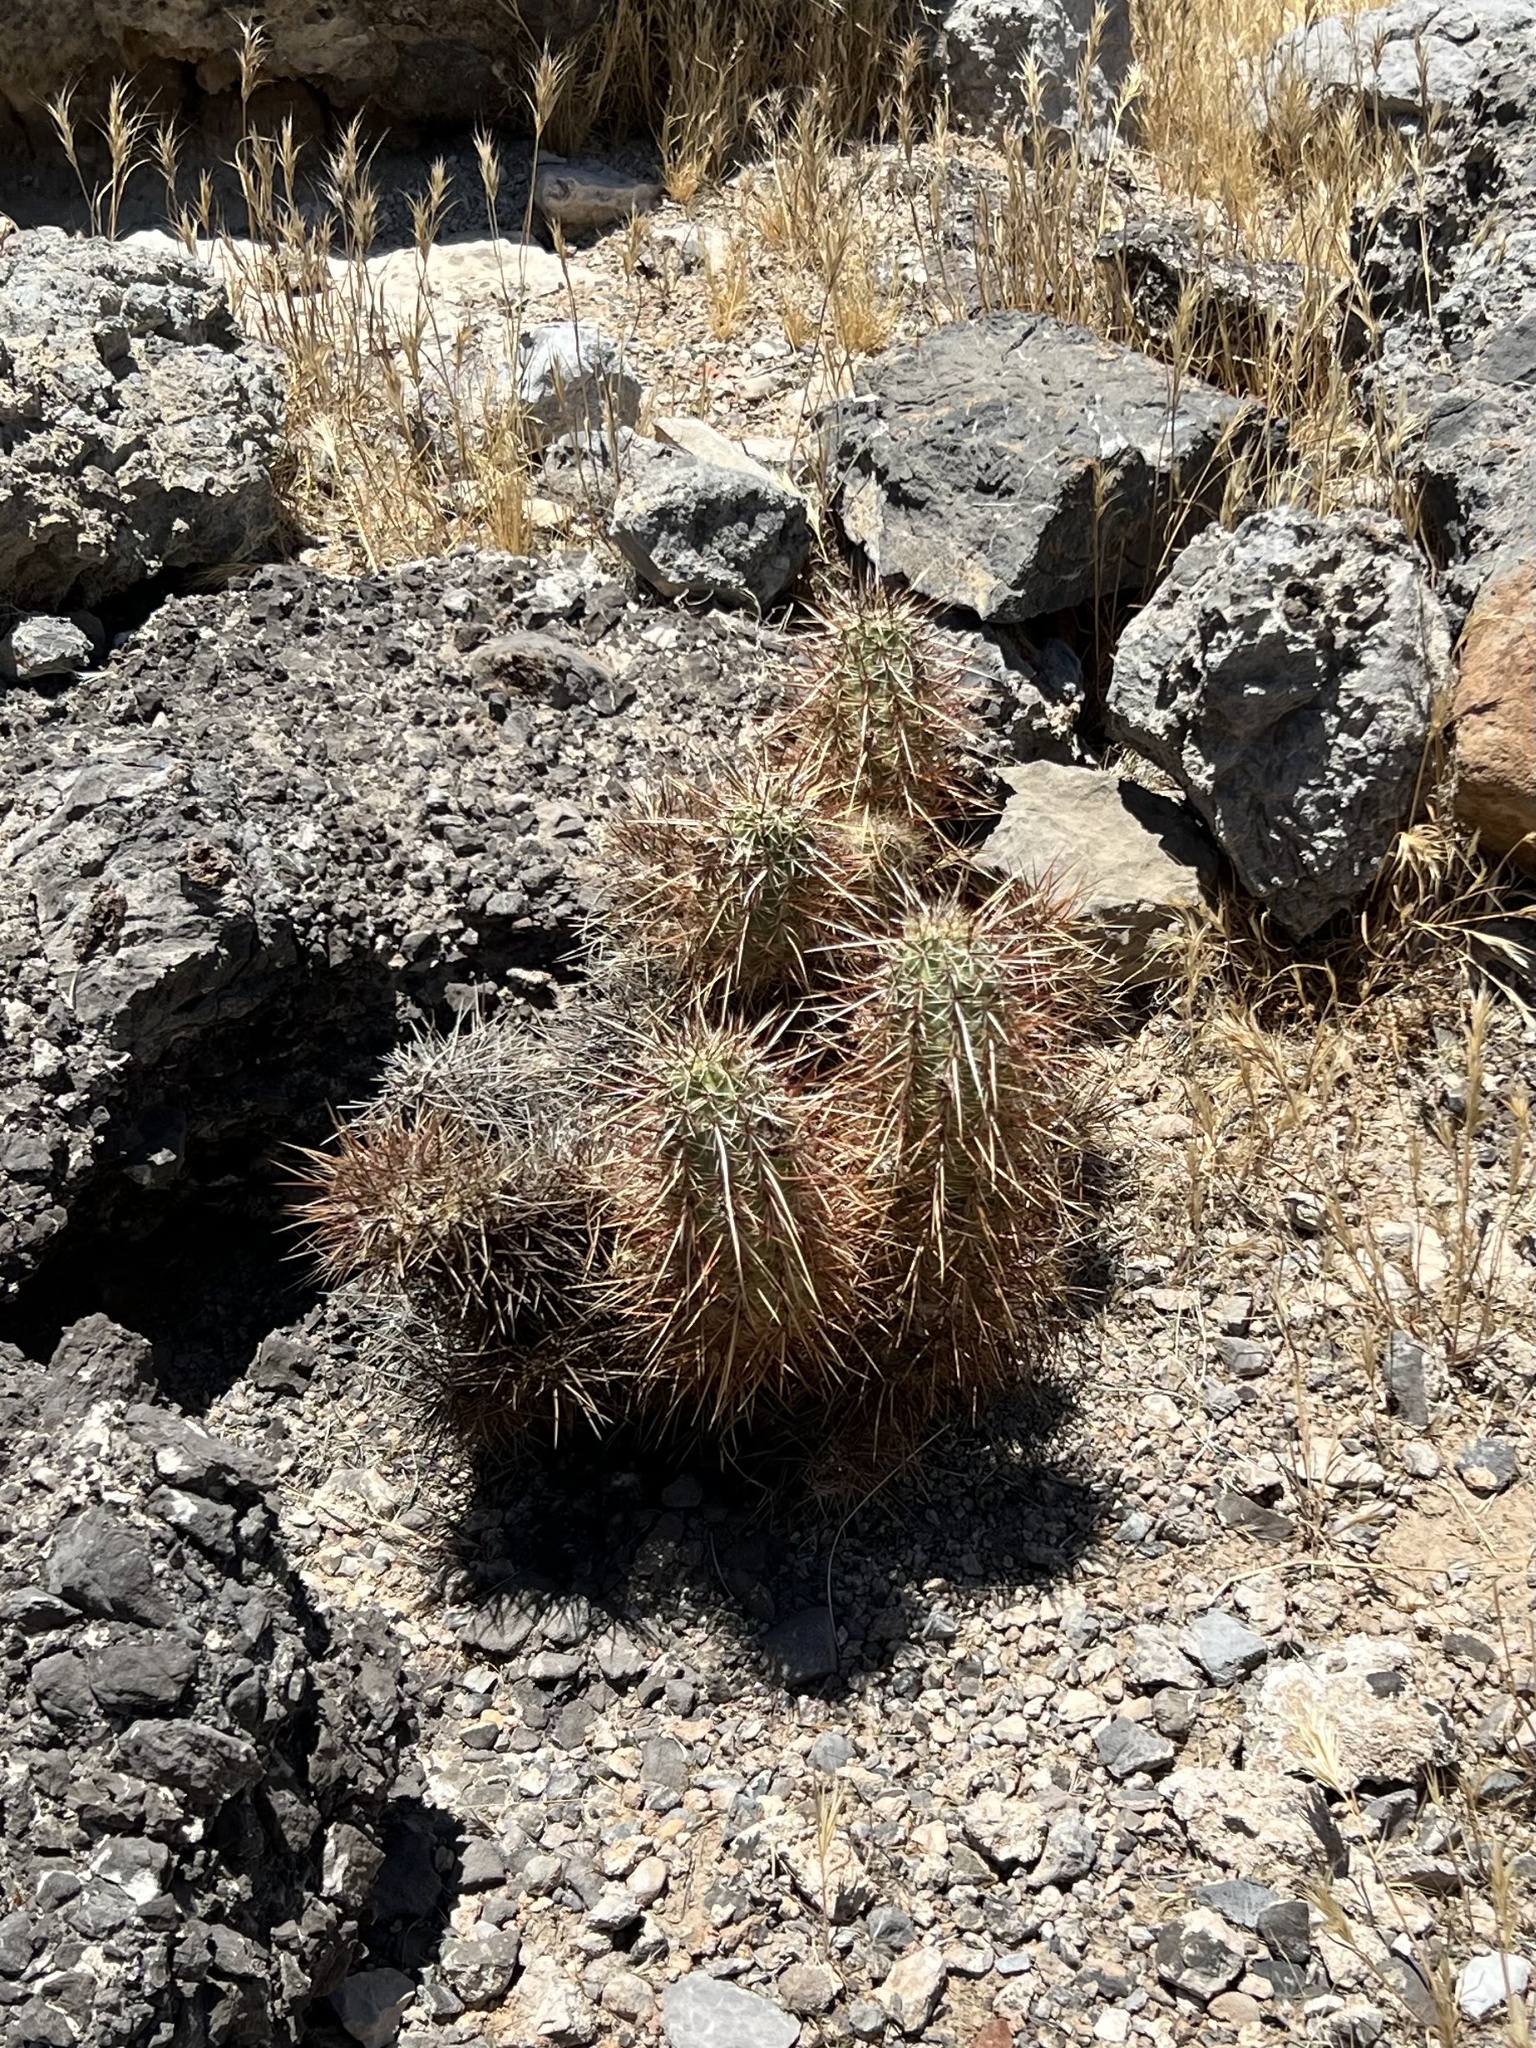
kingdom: Plantae
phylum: Tracheophyta
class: Magnoliopsida
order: Caryophyllales
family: Cactaceae
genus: Echinocereus
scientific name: Echinocereus engelmannii
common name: Engelmann's hedgehog cactus
